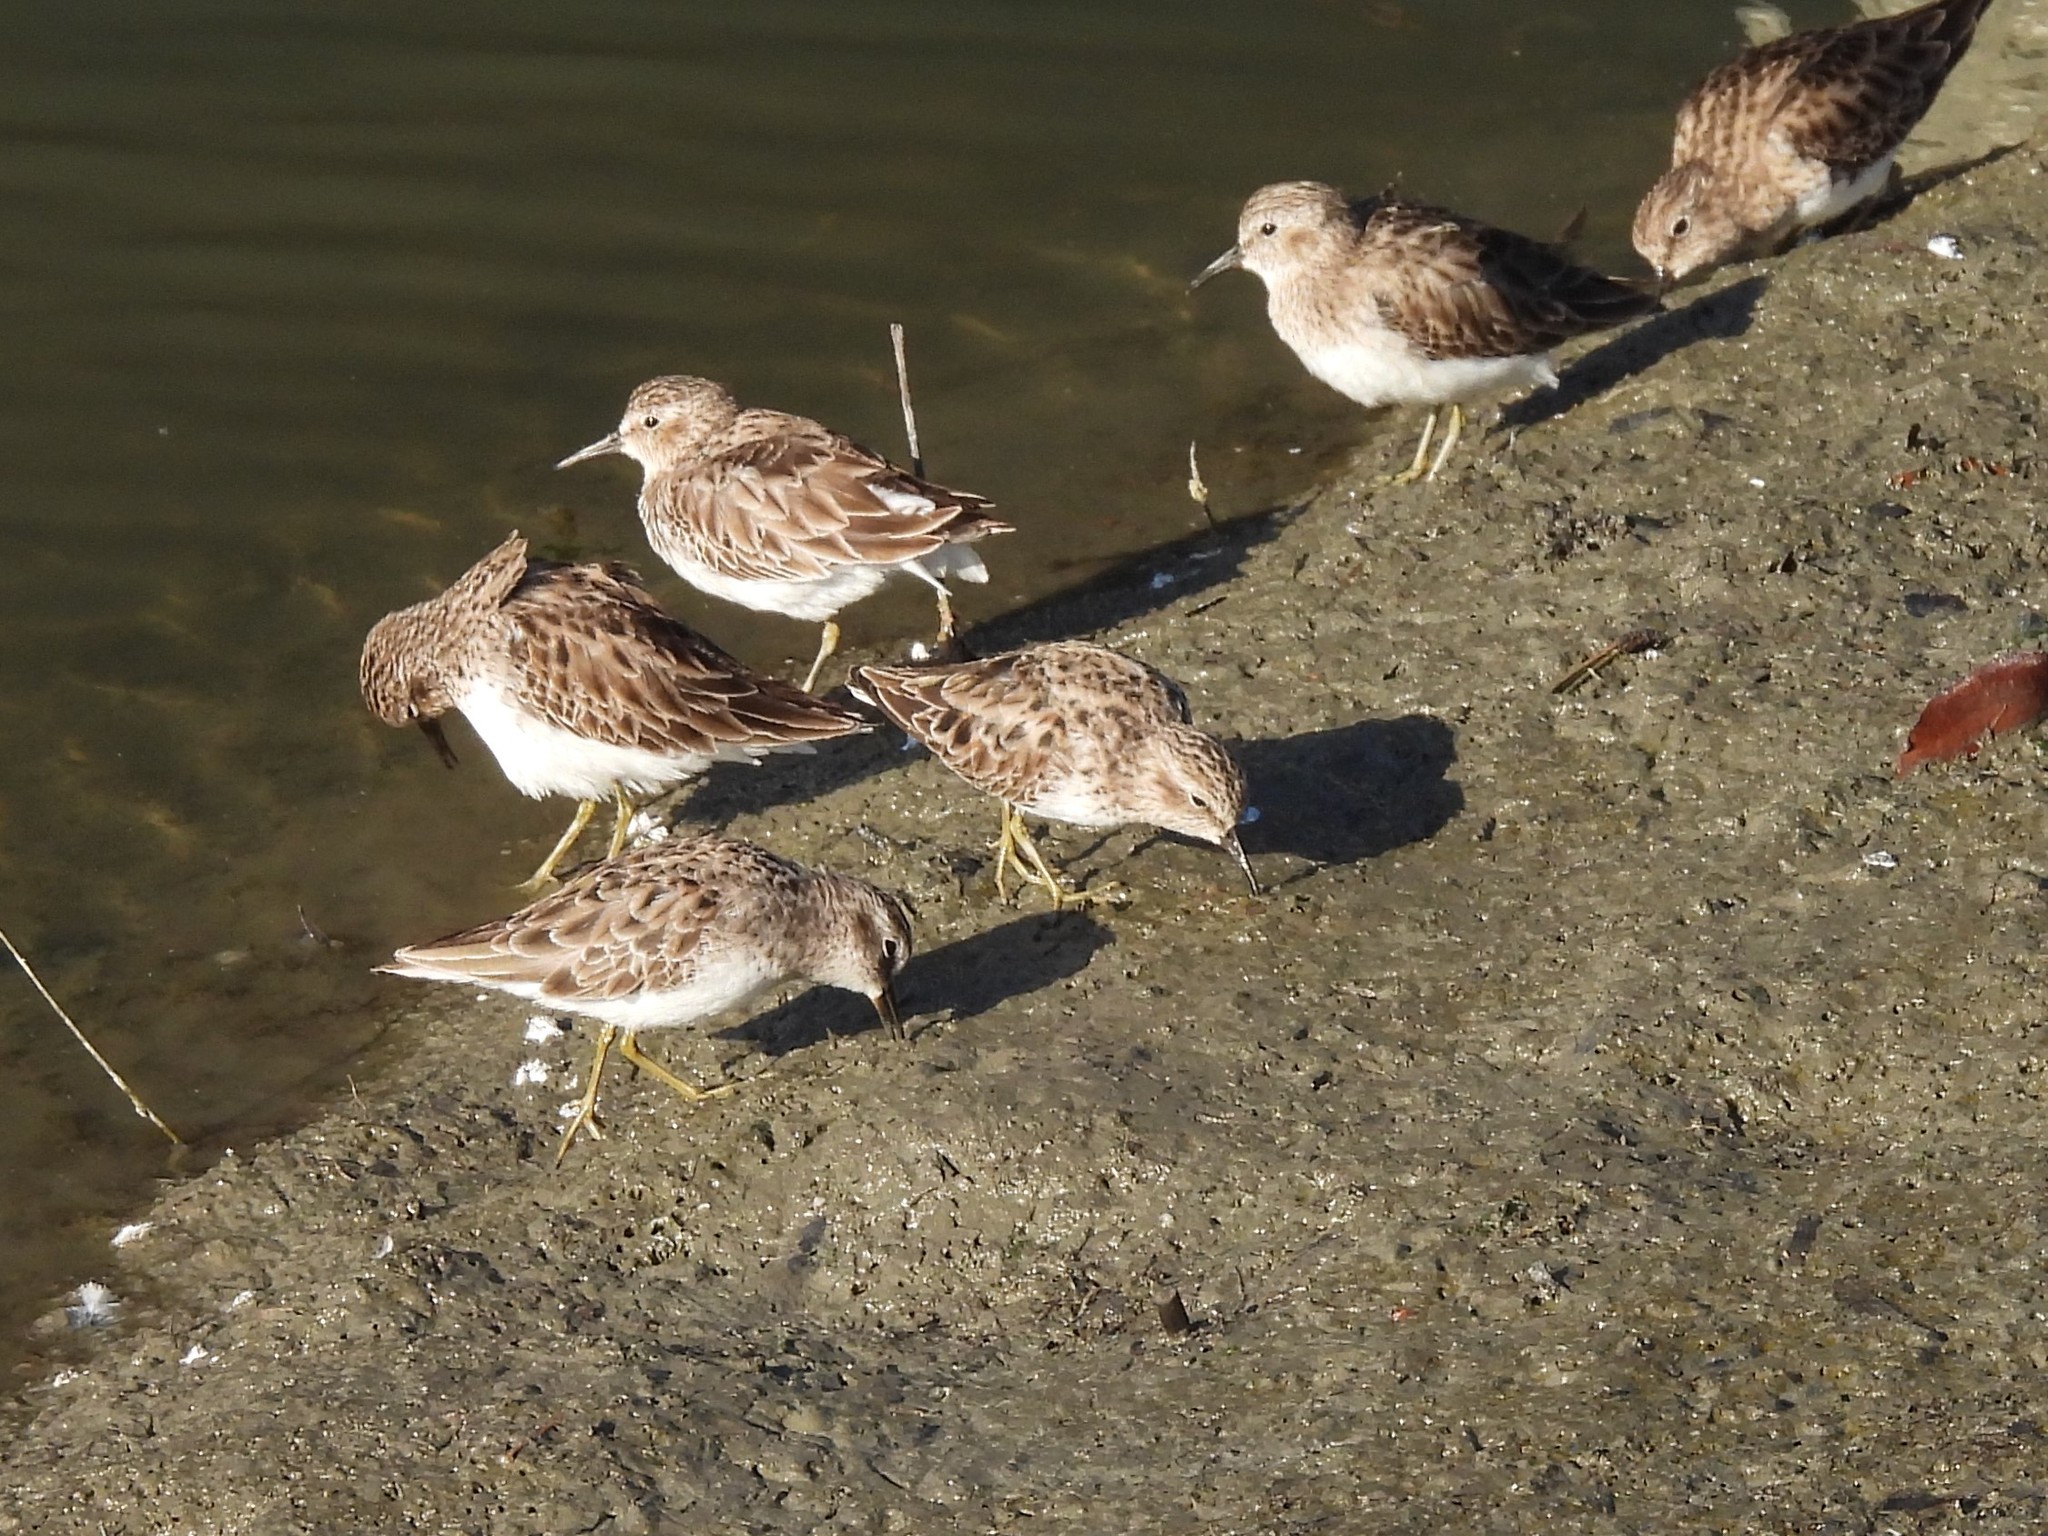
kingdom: Animalia
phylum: Chordata
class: Aves
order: Charadriiformes
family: Scolopacidae
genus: Calidris
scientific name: Calidris minutilla
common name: Least sandpiper
